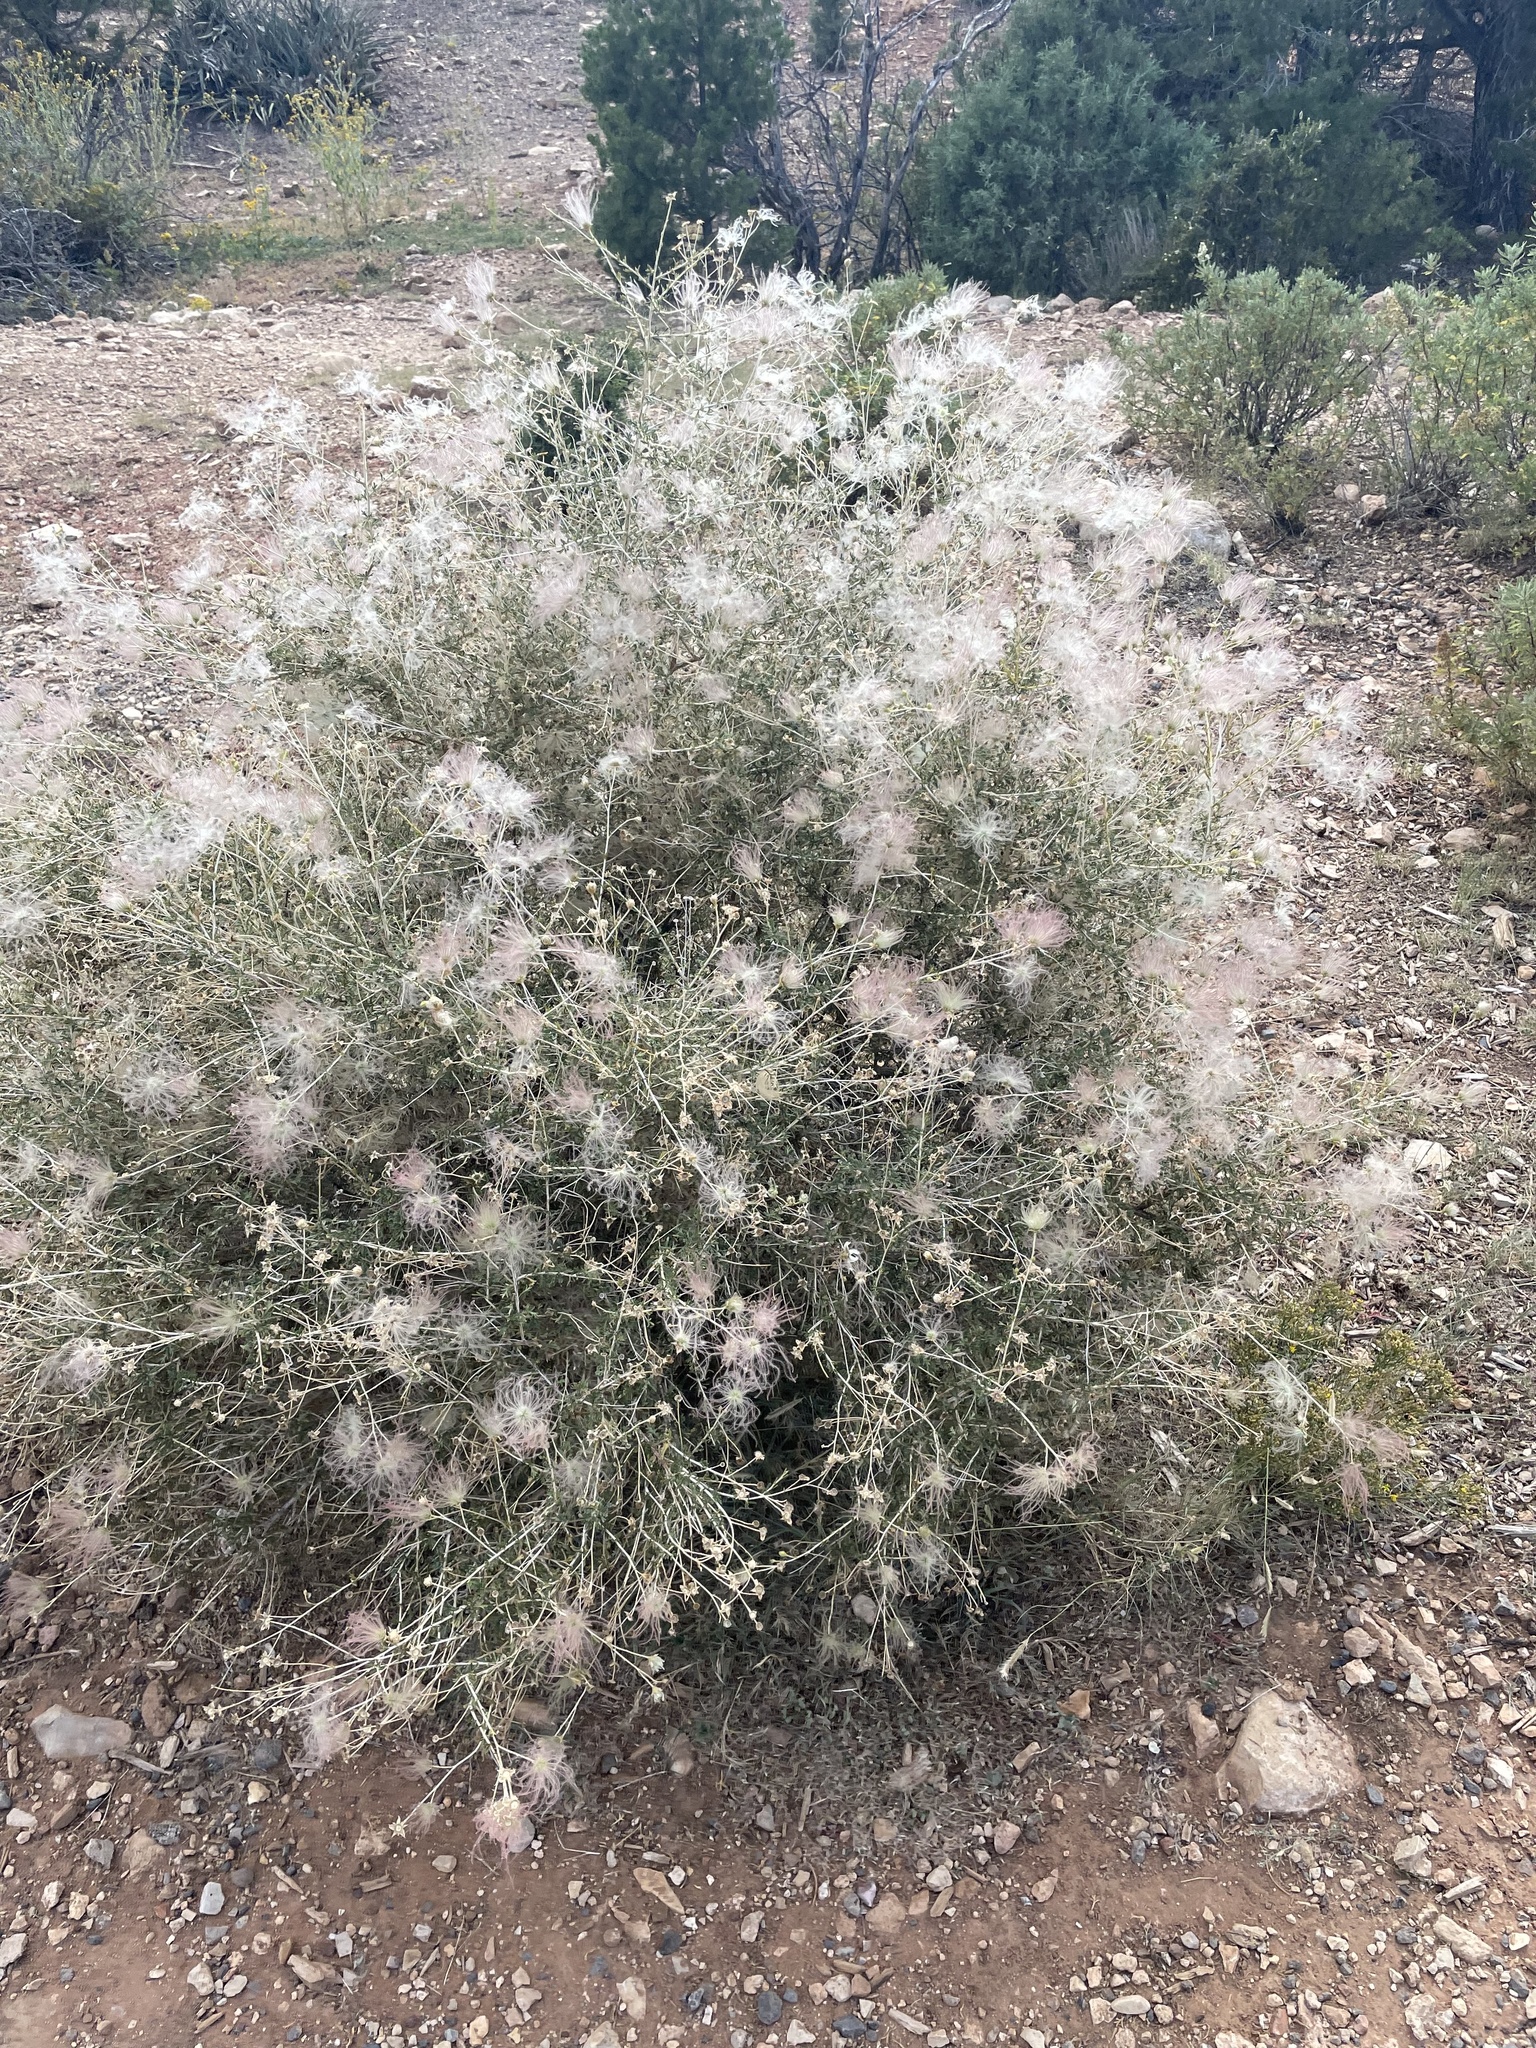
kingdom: Plantae
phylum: Tracheophyta
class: Magnoliopsida
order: Rosales
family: Rosaceae
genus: Fallugia
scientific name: Fallugia paradoxa
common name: Apache-plume
